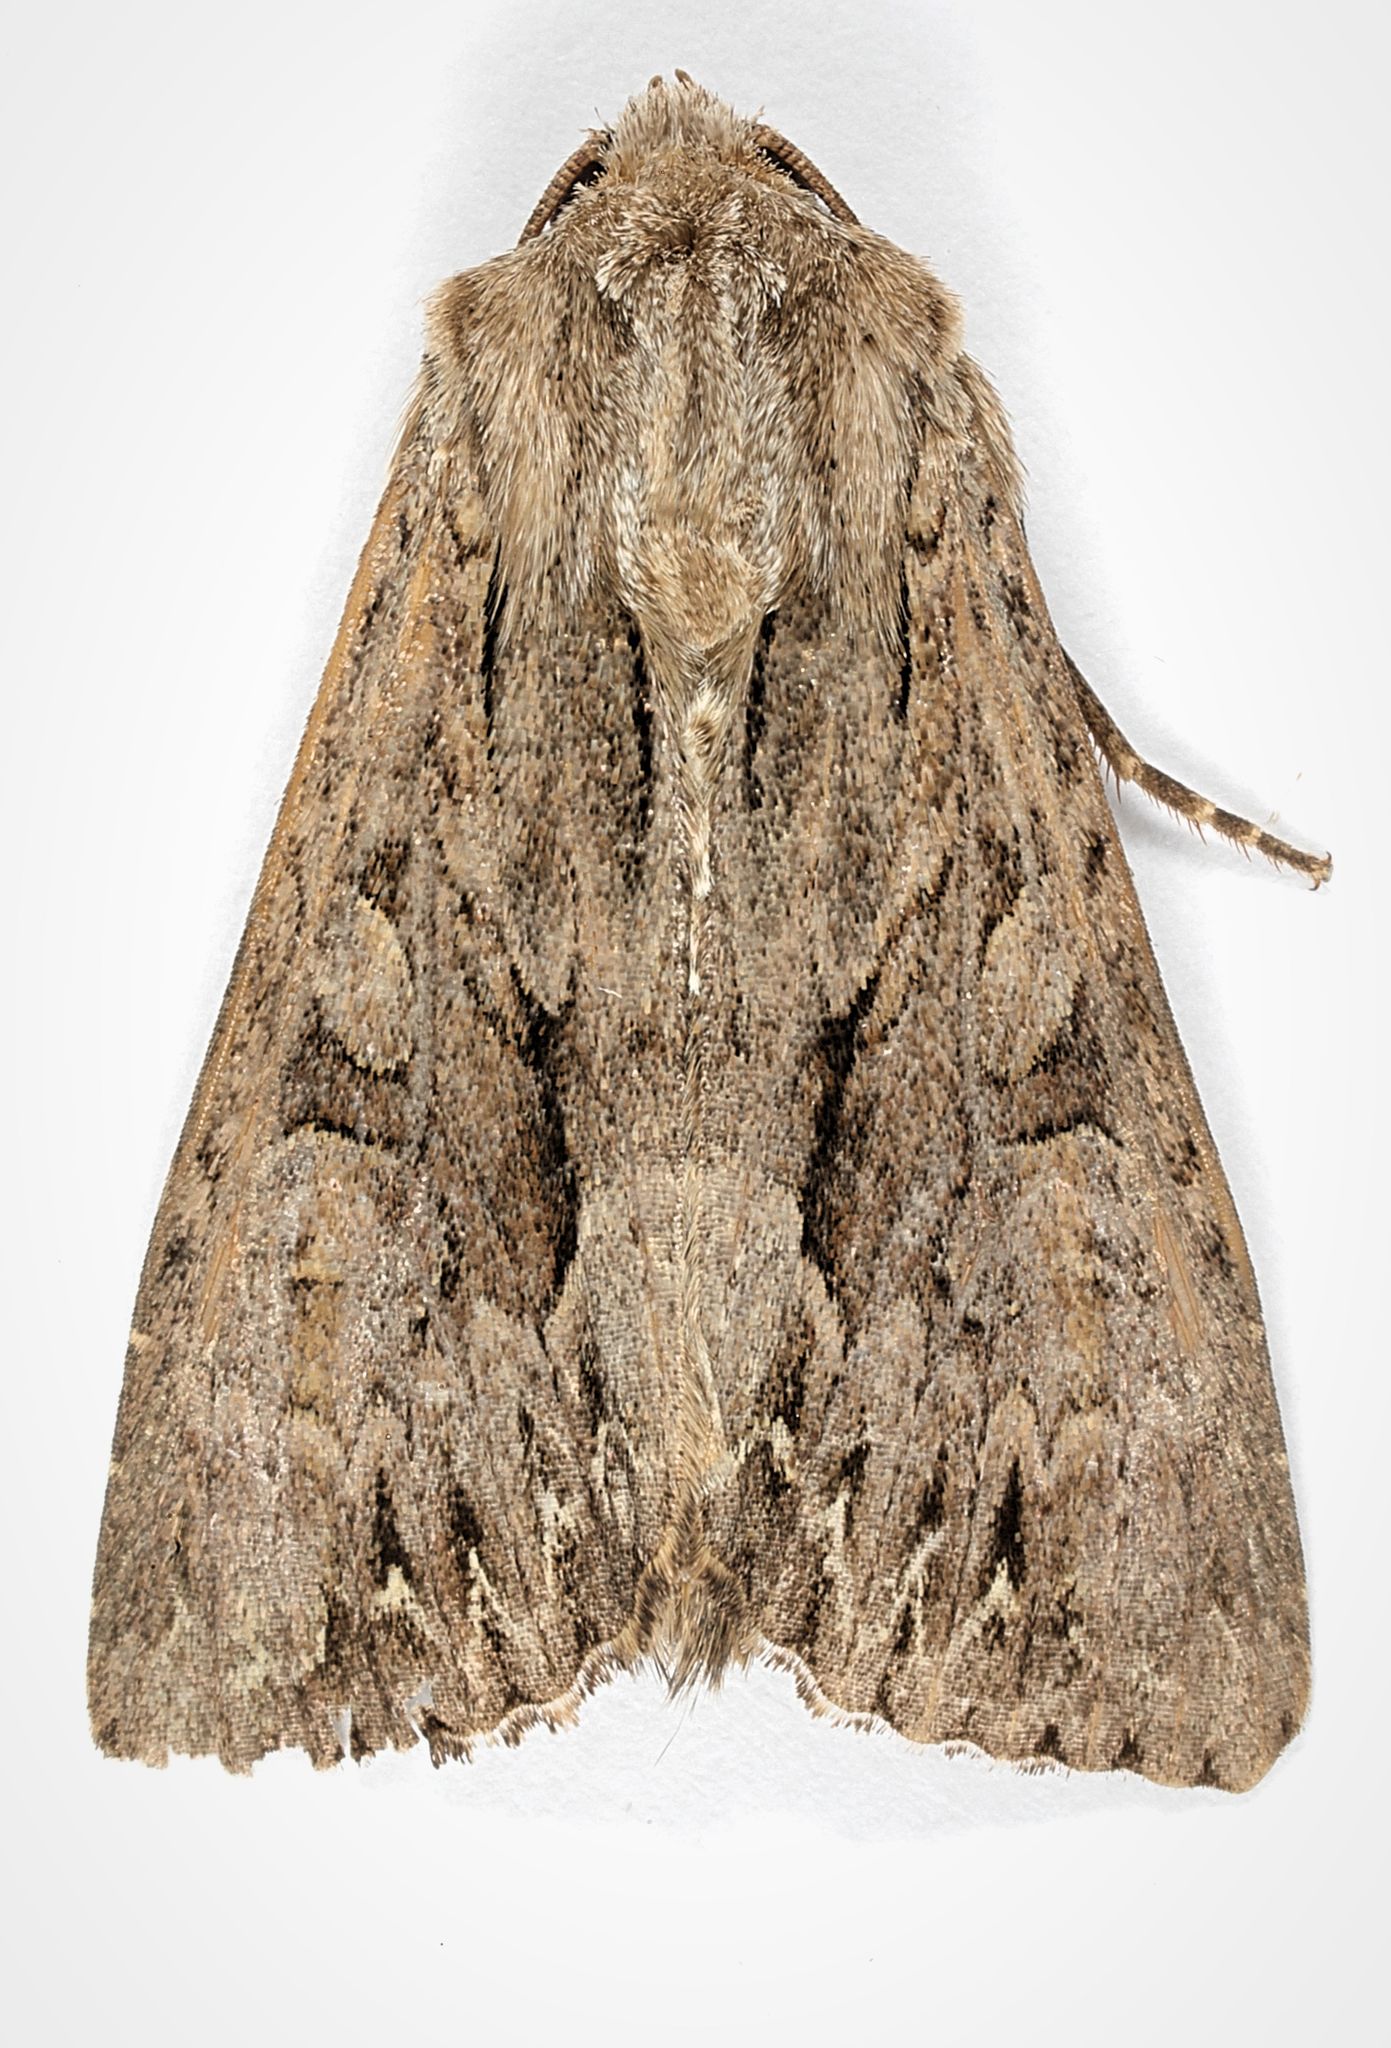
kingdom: Animalia
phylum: Arthropoda
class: Insecta
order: Lepidoptera
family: Noctuidae
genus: Apamea
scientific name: Apamea monoglypha
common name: Dark arches
